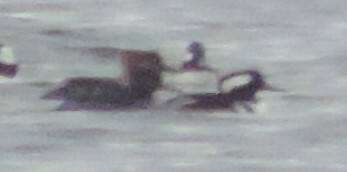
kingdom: Animalia
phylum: Chordata
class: Aves
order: Anseriformes
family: Anatidae
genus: Lophodytes
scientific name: Lophodytes cucullatus
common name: Hooded merganser
